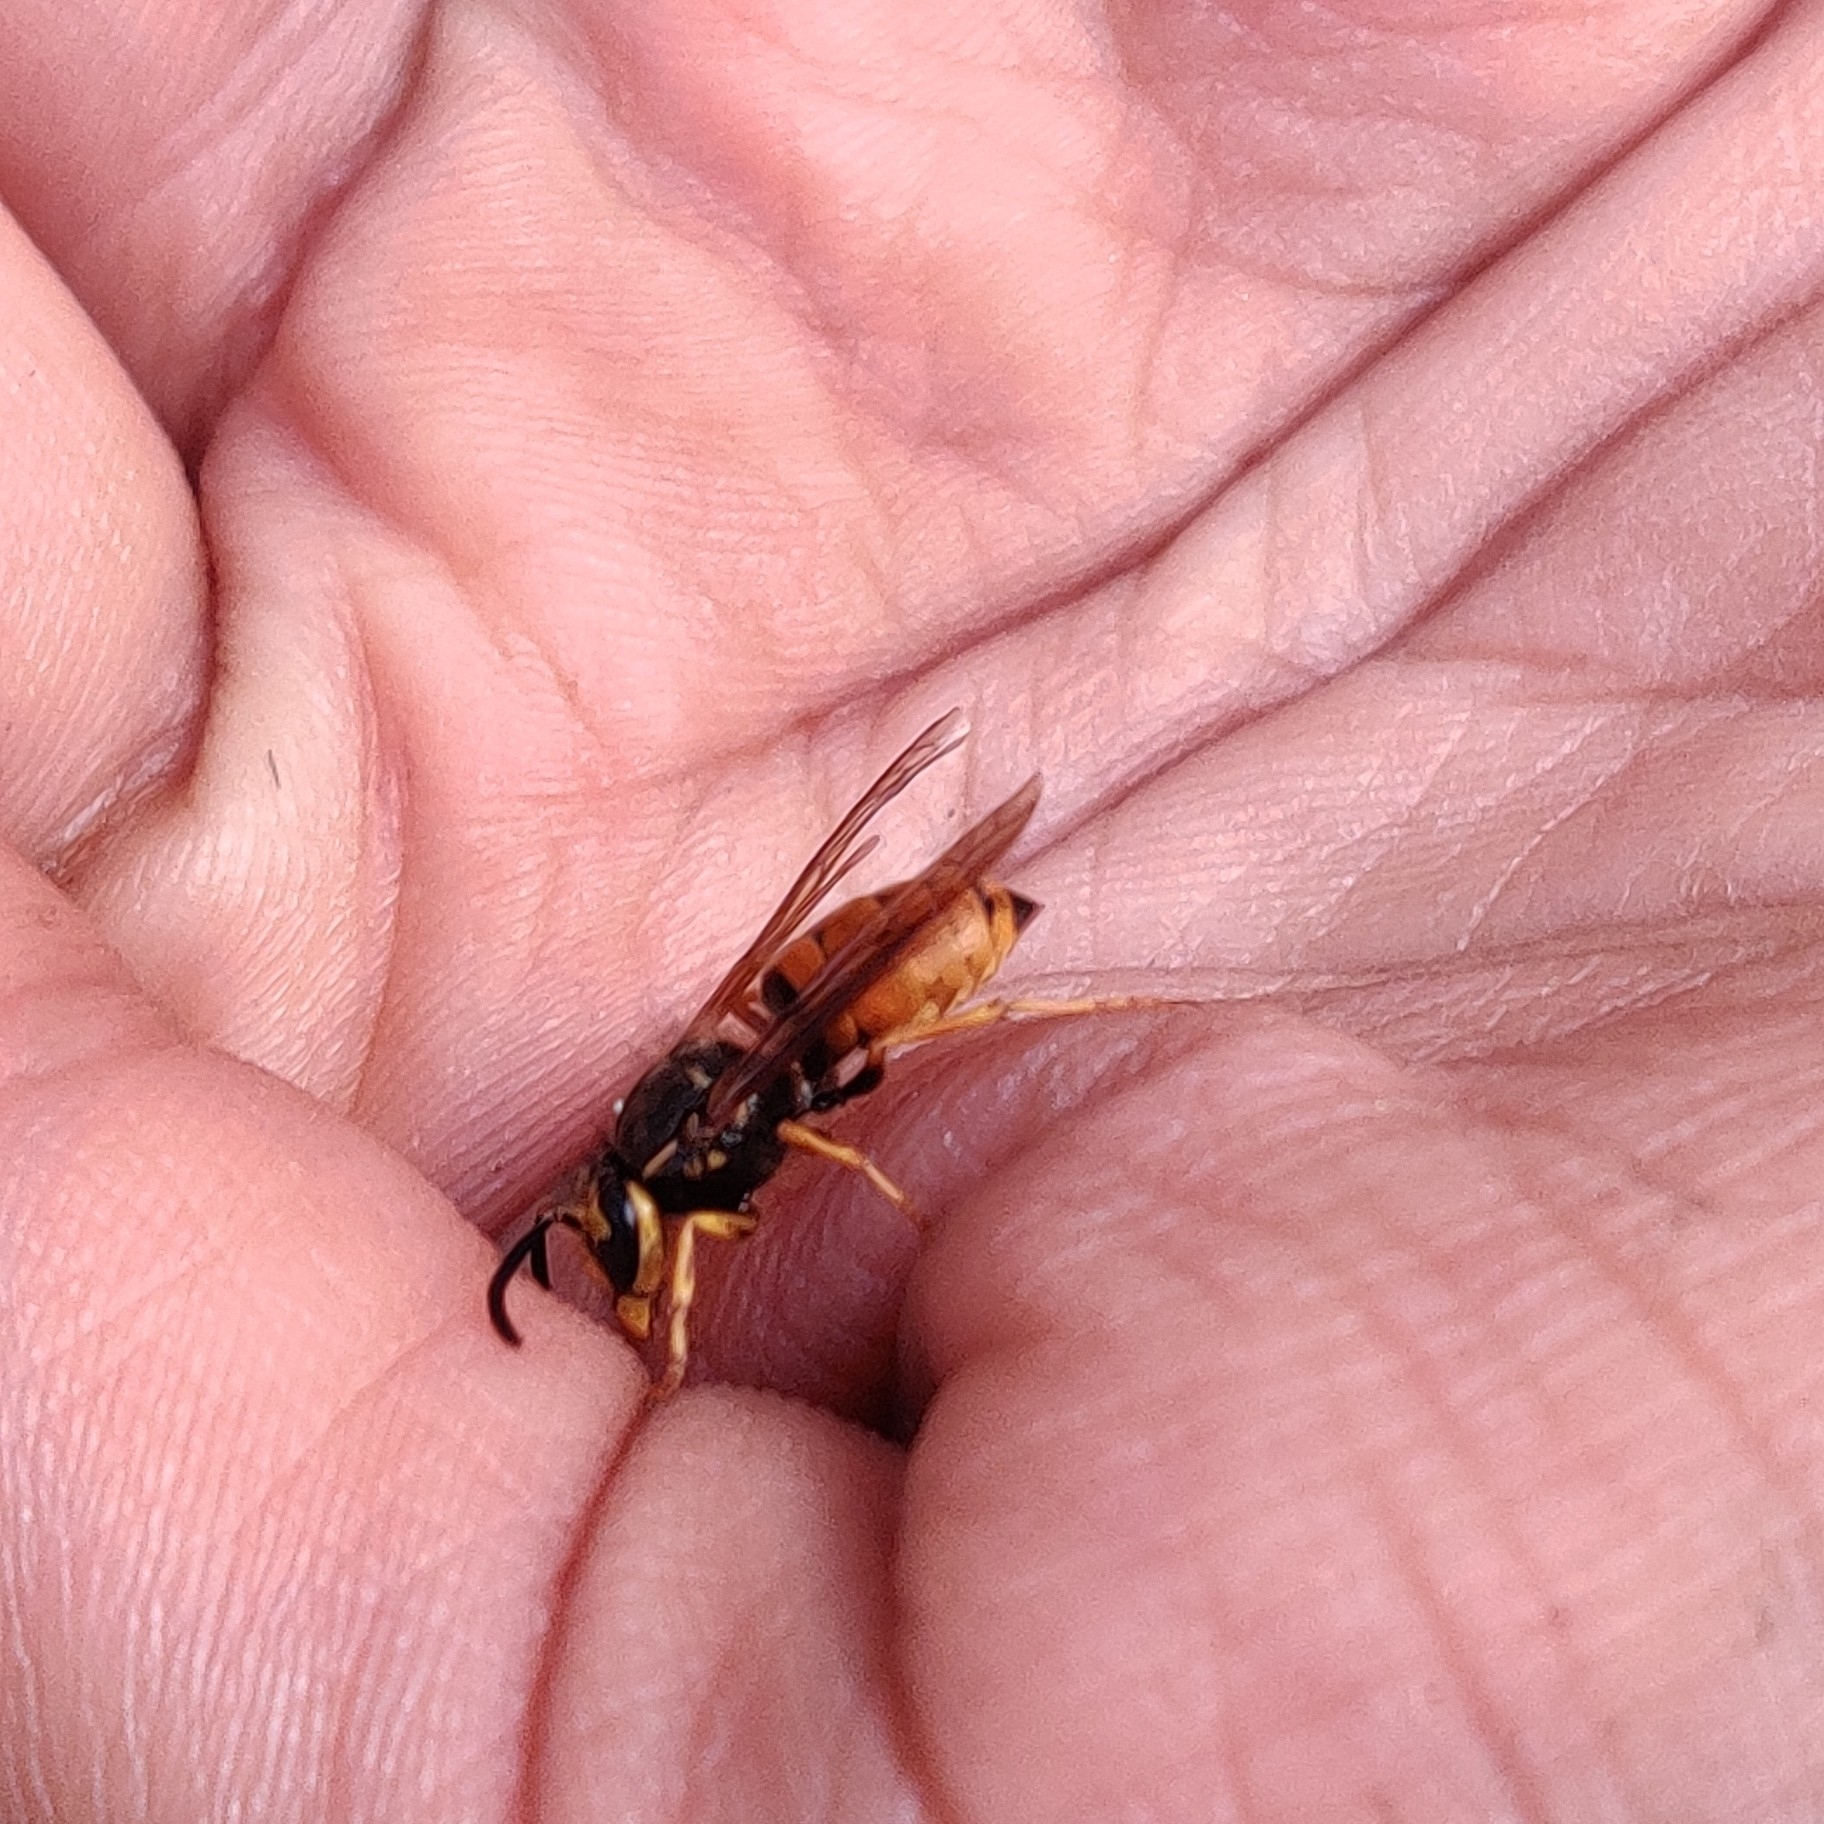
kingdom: Animalia
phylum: Arthropoda
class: Insecta
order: Hymenoptera
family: Vespidae
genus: Vespula
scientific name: Vespula structor
